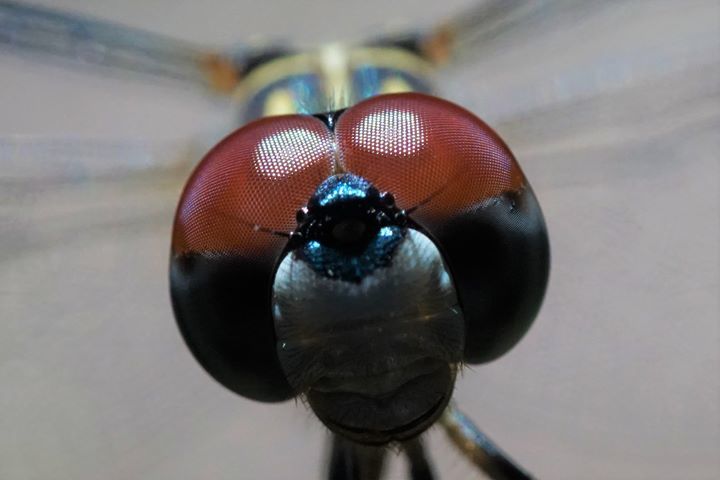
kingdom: Animalia
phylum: Arthropoda
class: Insecta
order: Odonata
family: Libellulidae
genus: Pachydiplax
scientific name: Pachydiplax longipennis
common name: Blue dasher
